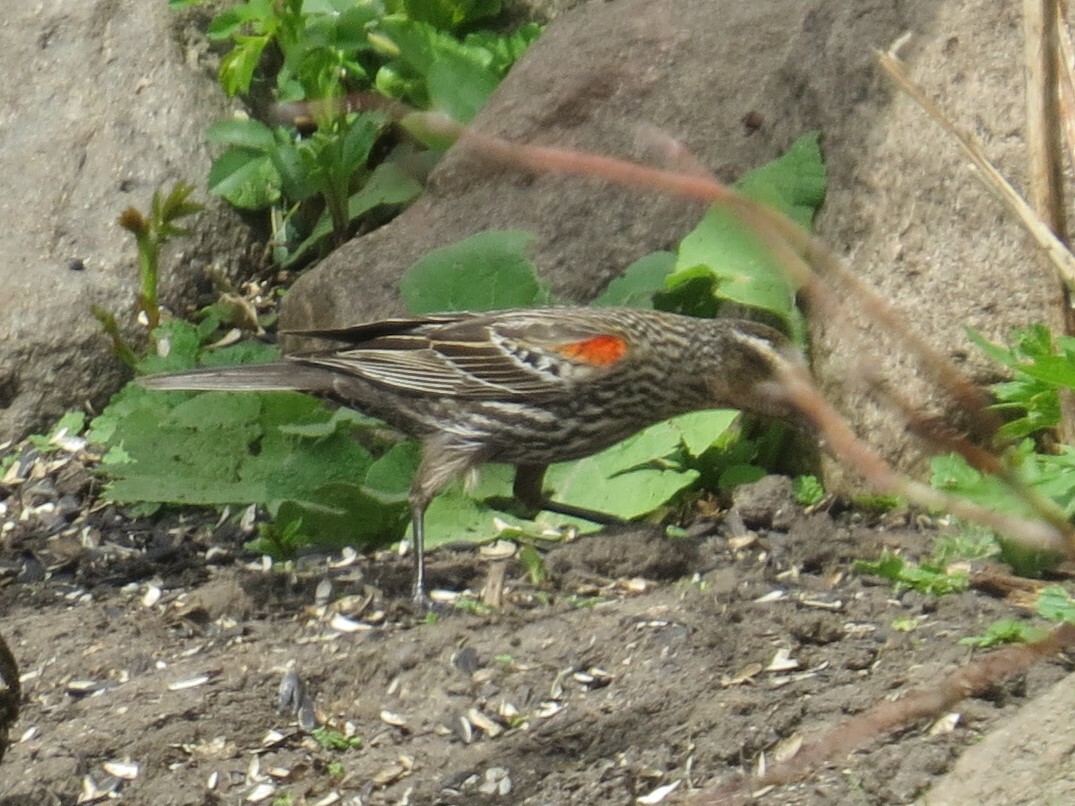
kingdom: Animalia
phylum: Chordata
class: Aves
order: Passeriformes
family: Icteridae
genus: Agelaius
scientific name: Agelaius phoeniceus
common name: Red-winged blackbird
